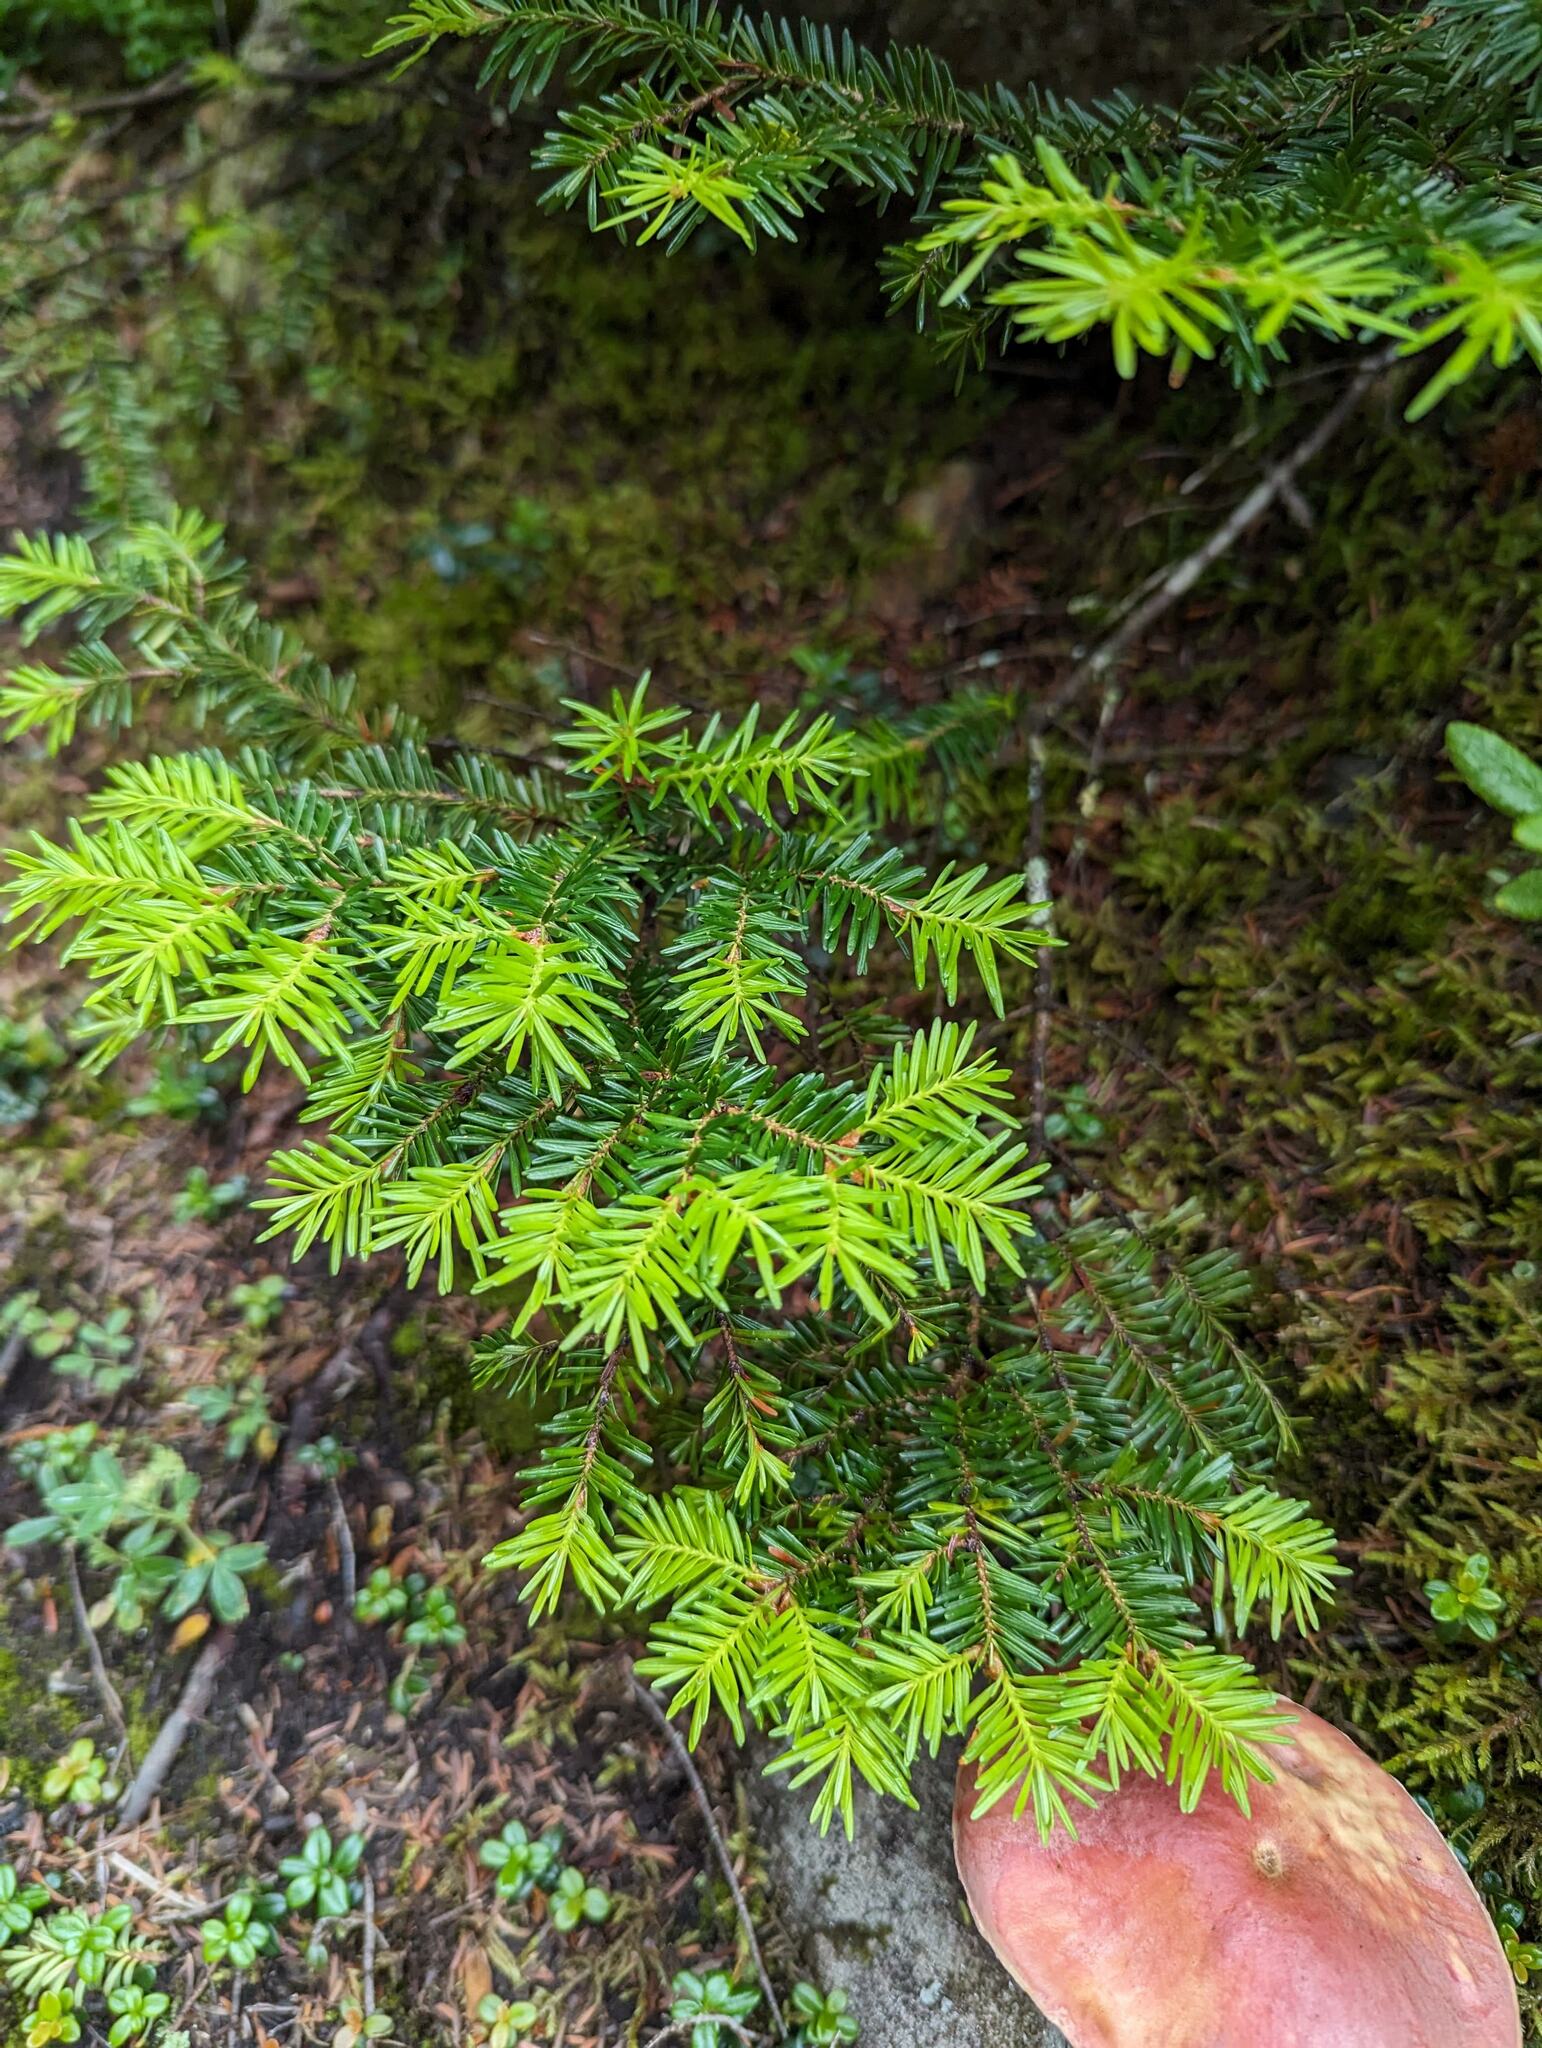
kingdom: Plantae
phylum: Tracheophyta
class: Pinopsida
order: Pinales
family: Pinaceae
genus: Tsuga
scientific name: Tsuga canadensis
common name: Eastern hemlock
